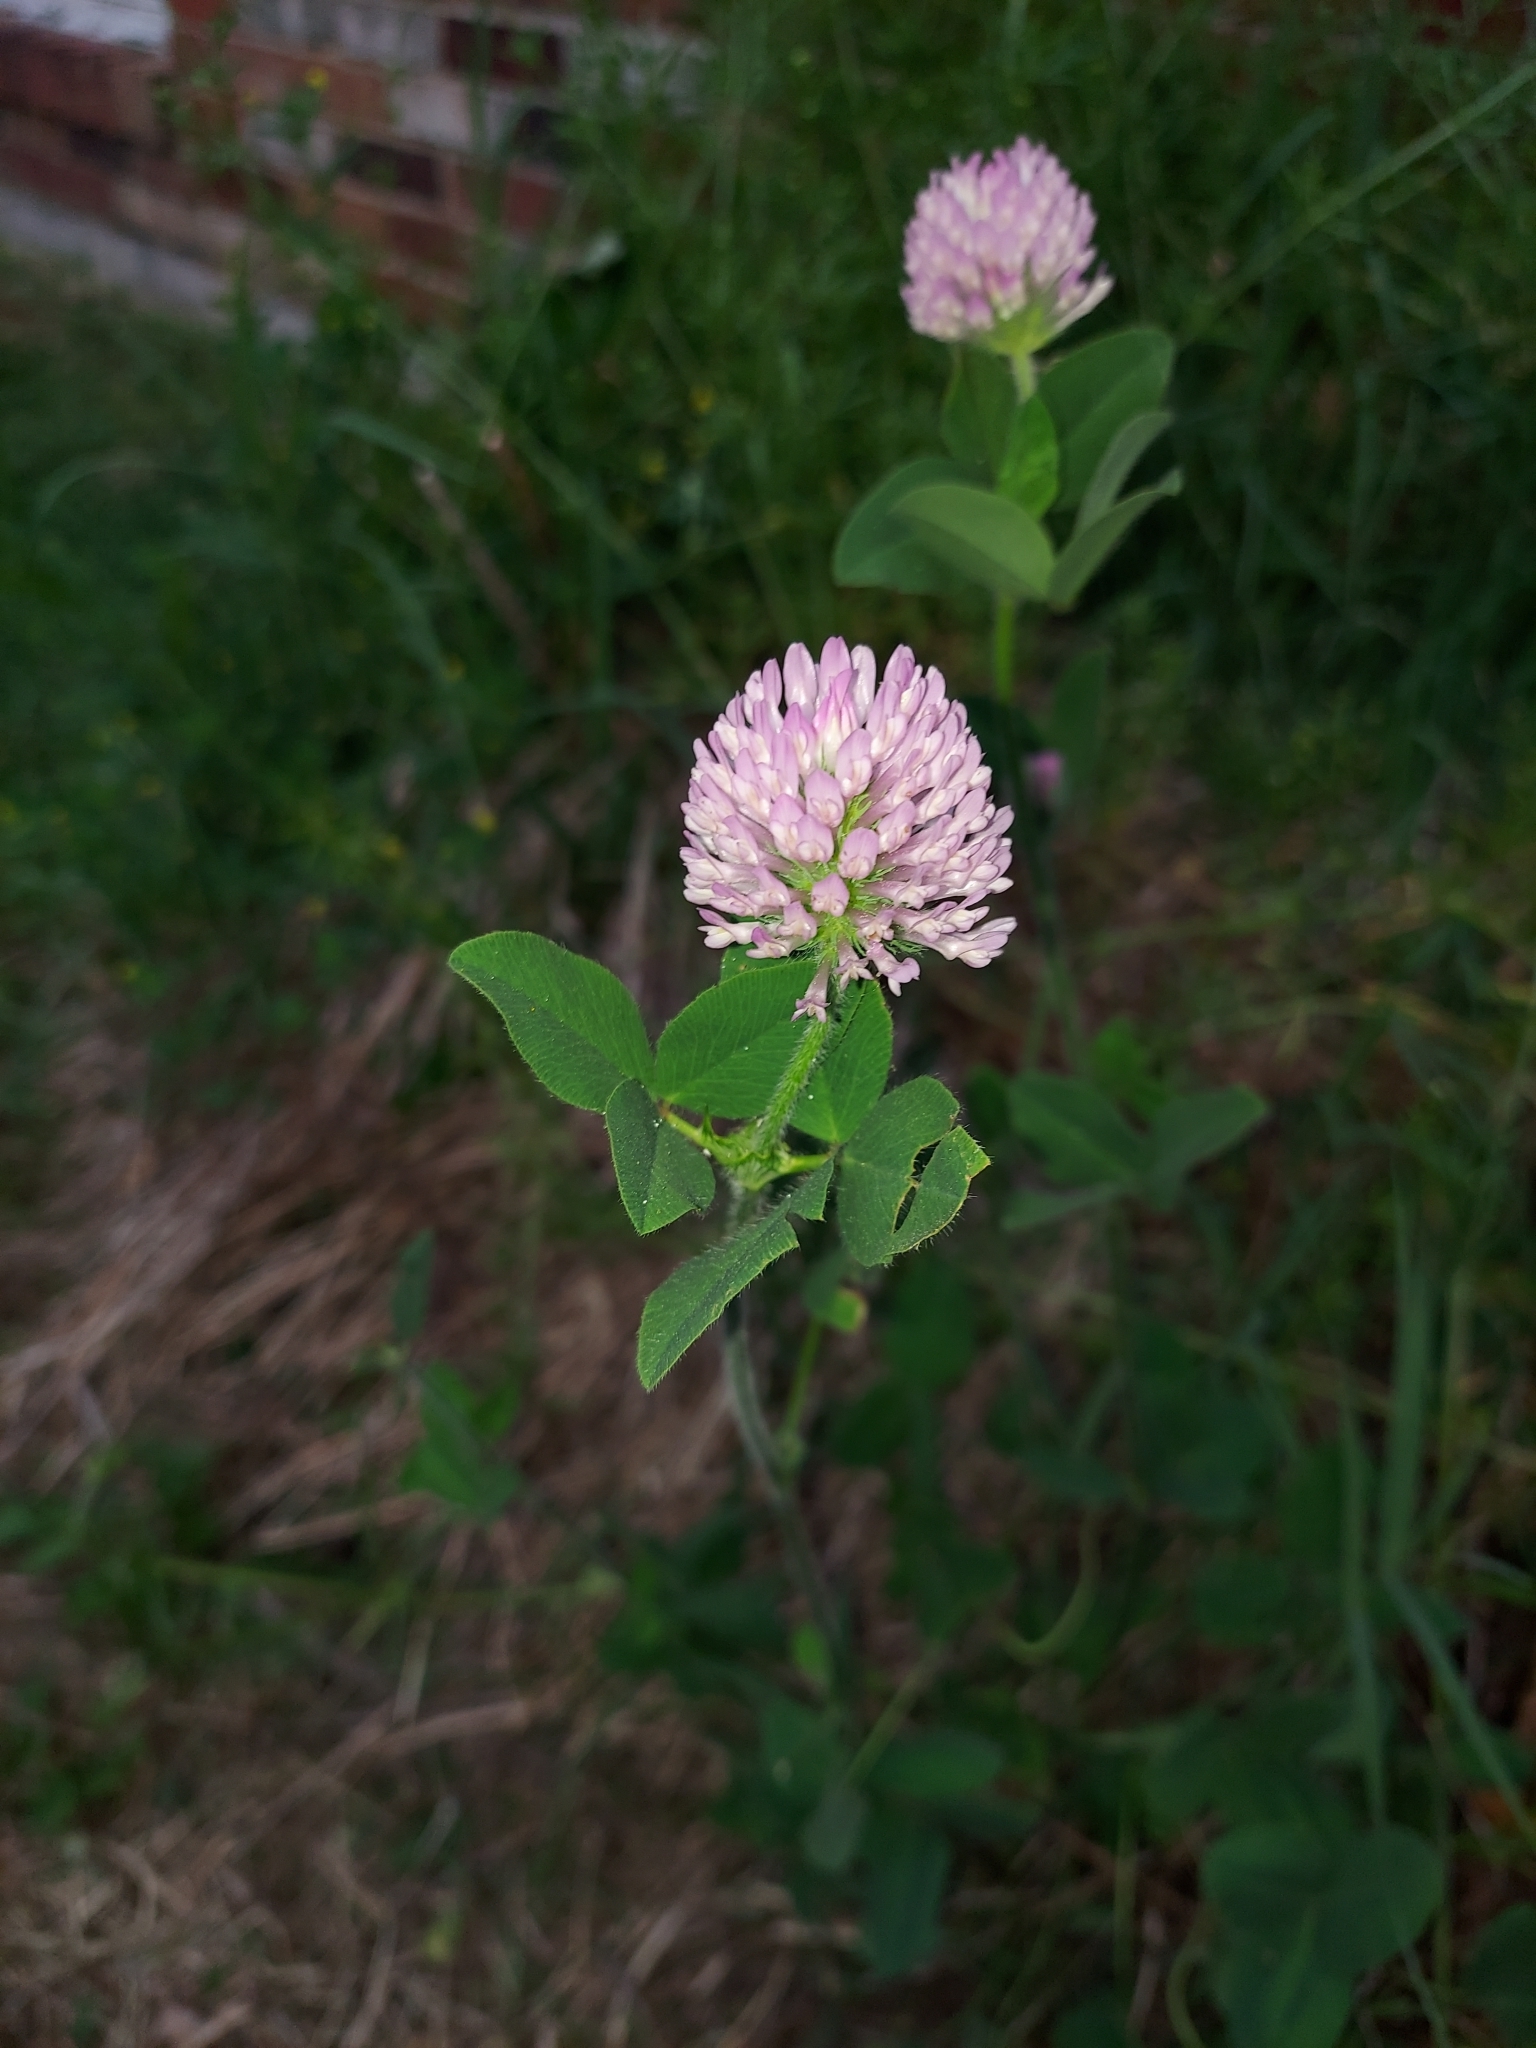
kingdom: Plantae
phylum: Tracheophyta
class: Magnoliopsida
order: Fabales
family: Fabaceae
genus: Trifolium
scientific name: Trifolium pratense
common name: Red clover
